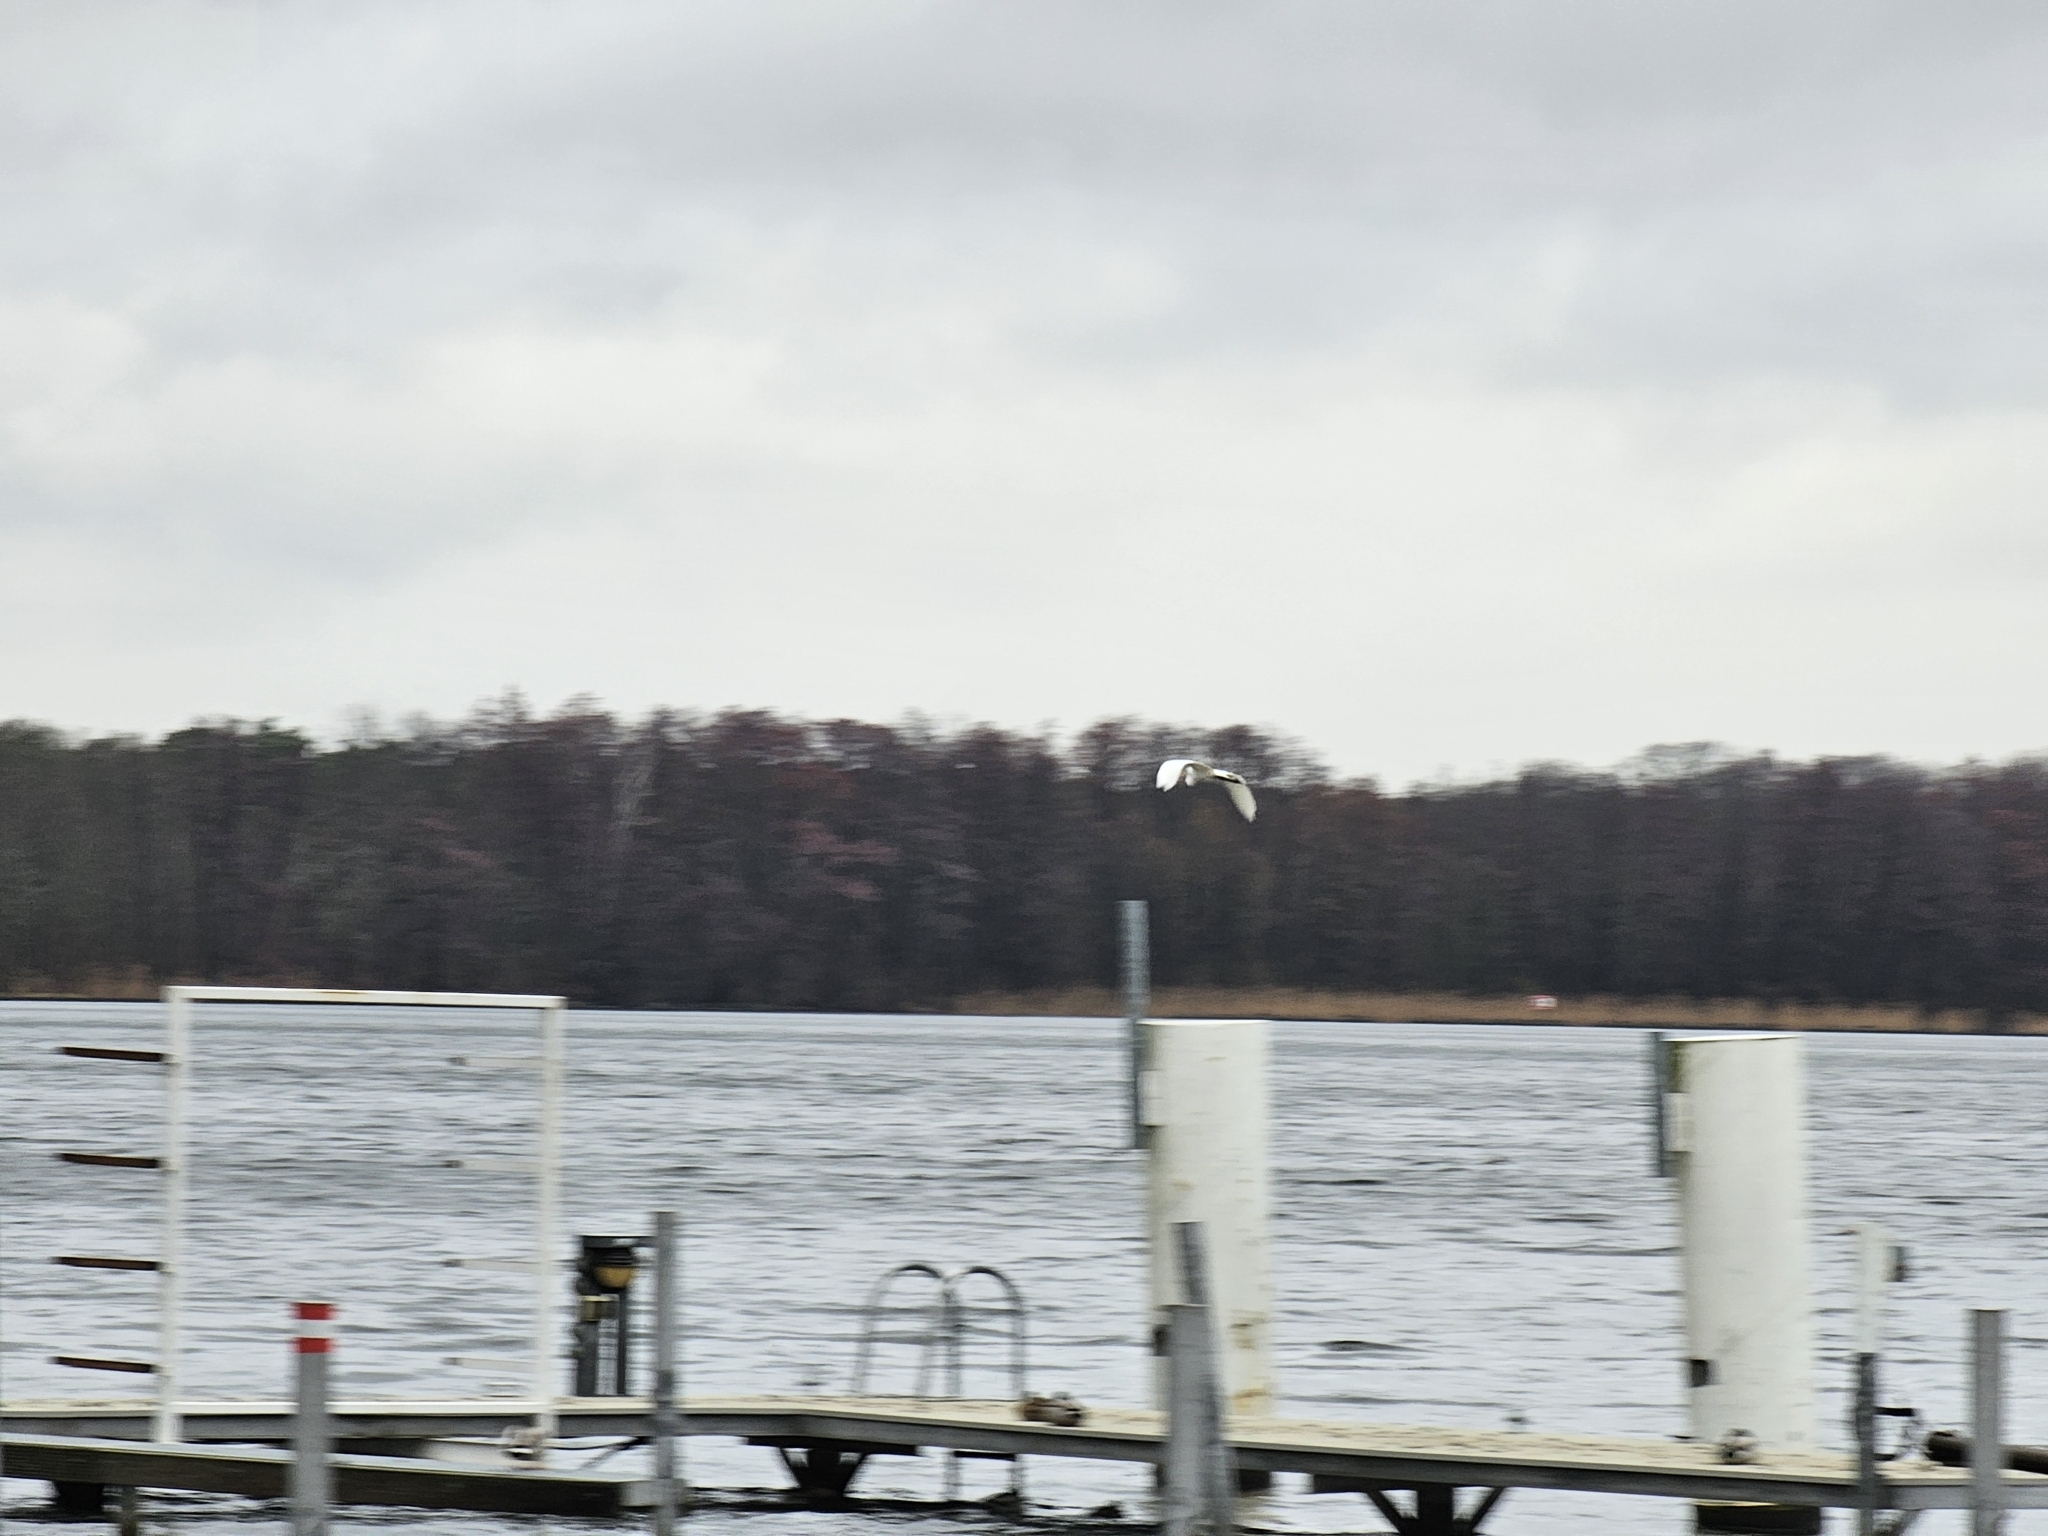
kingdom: Animalia
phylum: Chordata
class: Aves
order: Pelecaniformes
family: Ardeidae
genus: Ardea
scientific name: Ardea alba
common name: Great egret
